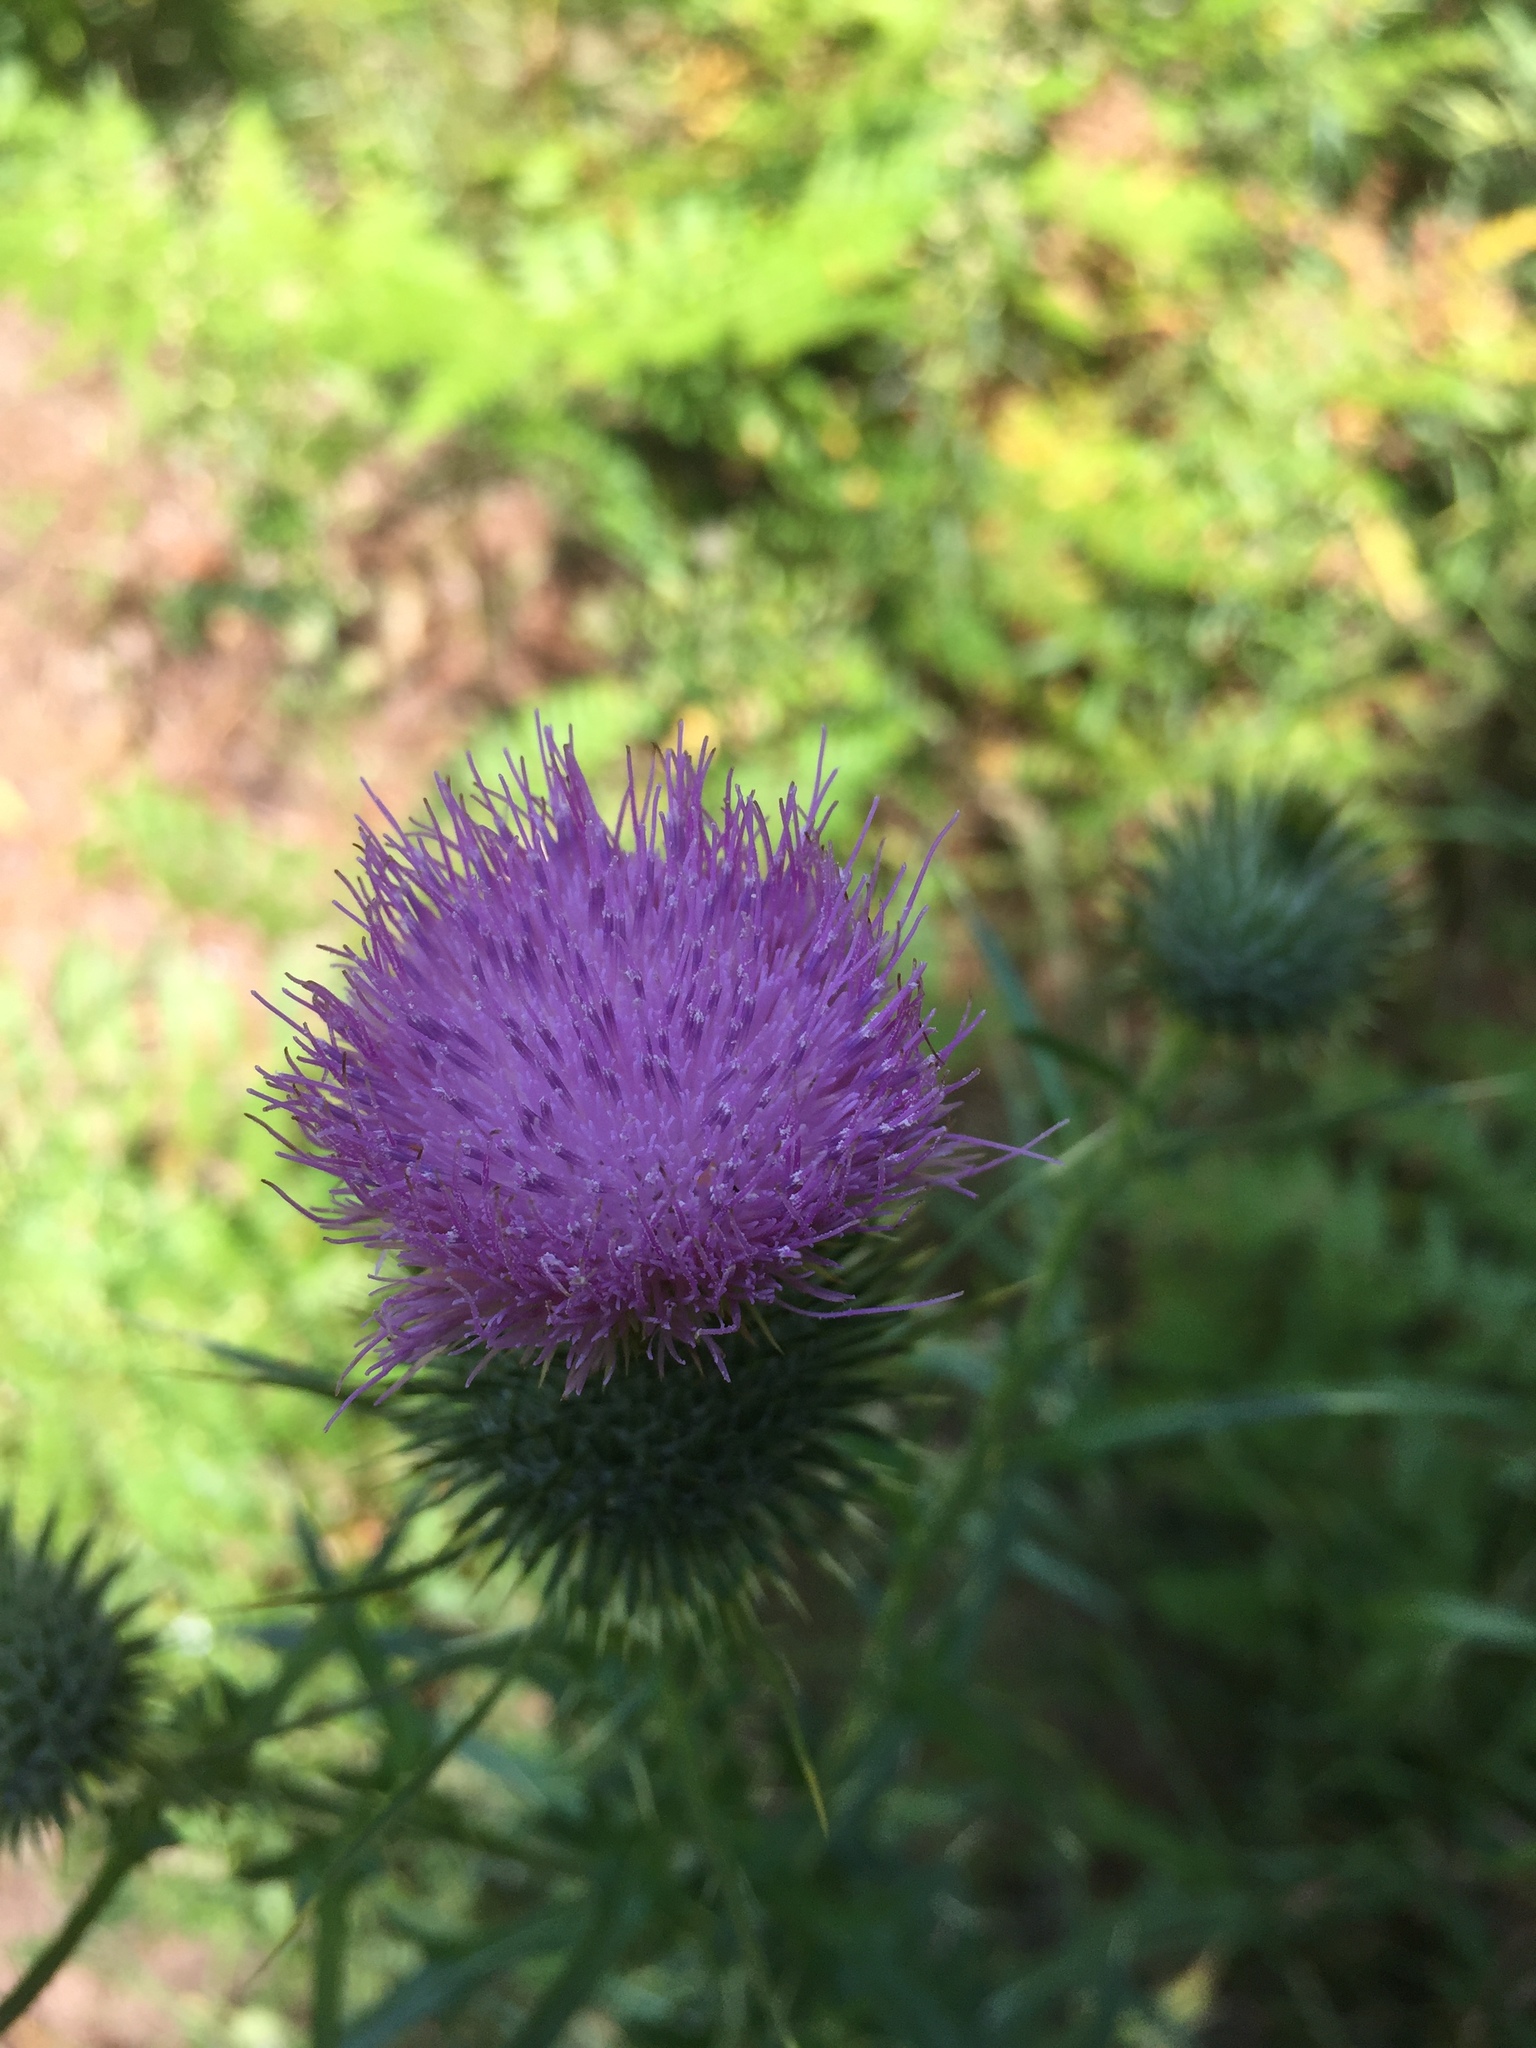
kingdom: Plantae
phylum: Tracheophyta
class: Magnoliopsida
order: Asterales
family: Asteraceae
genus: Cirsium
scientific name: Cirsium vulgare
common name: Bull thistle
